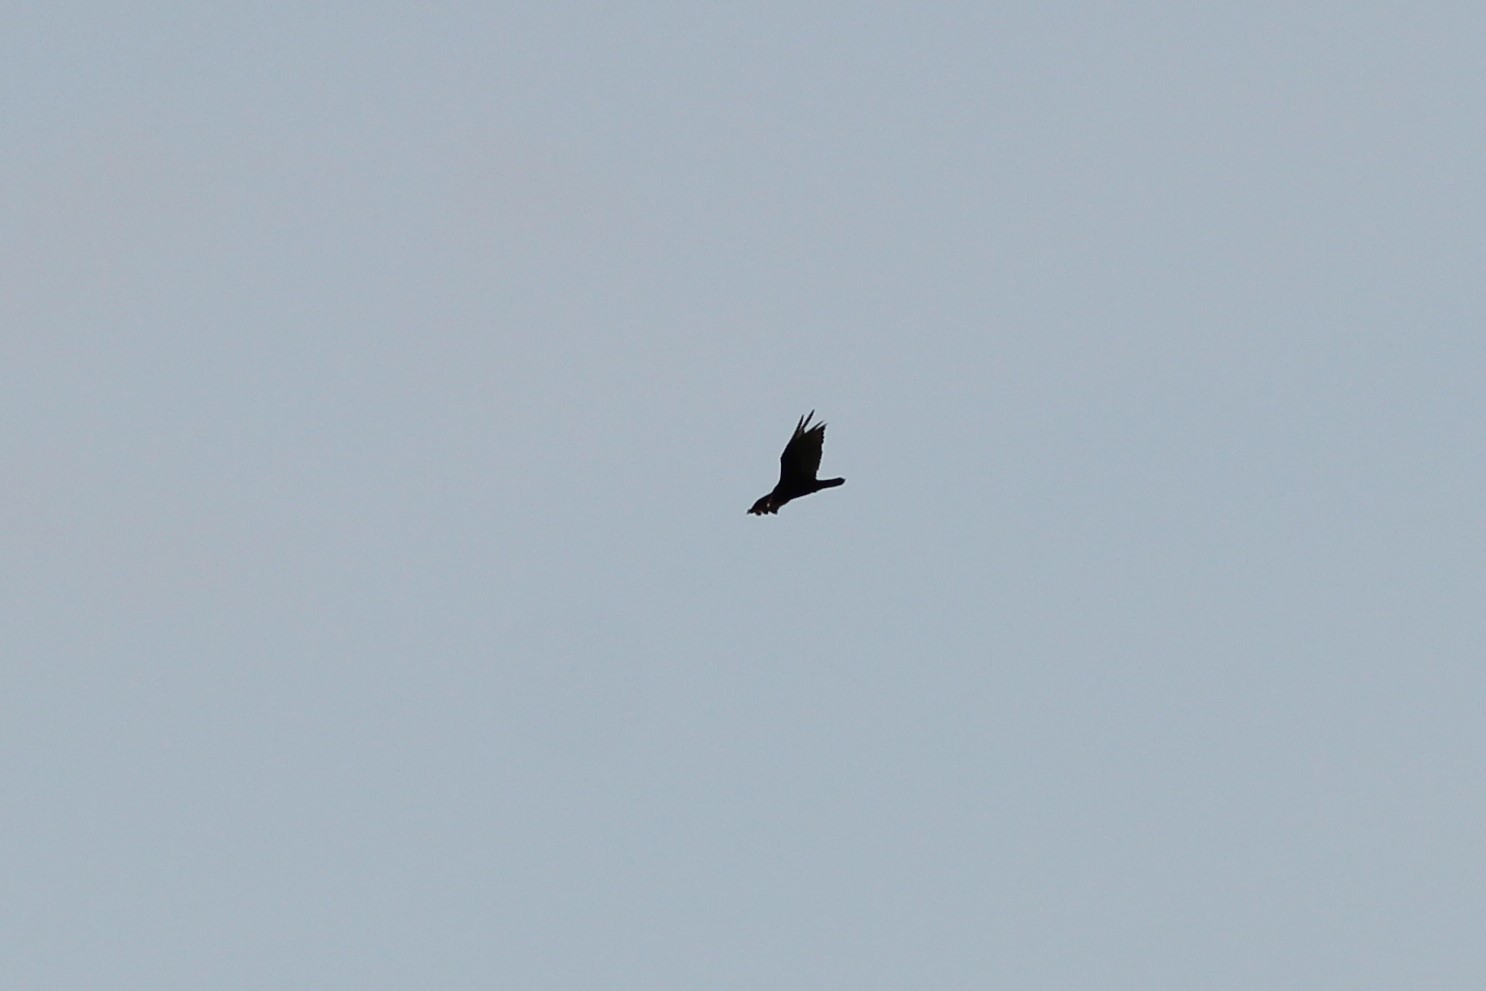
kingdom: Animalia
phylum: Chordata
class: Aves
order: Accipitriformes
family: Cathartidae
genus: Cathartes
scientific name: Cathartes aura
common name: Turkey vulture
